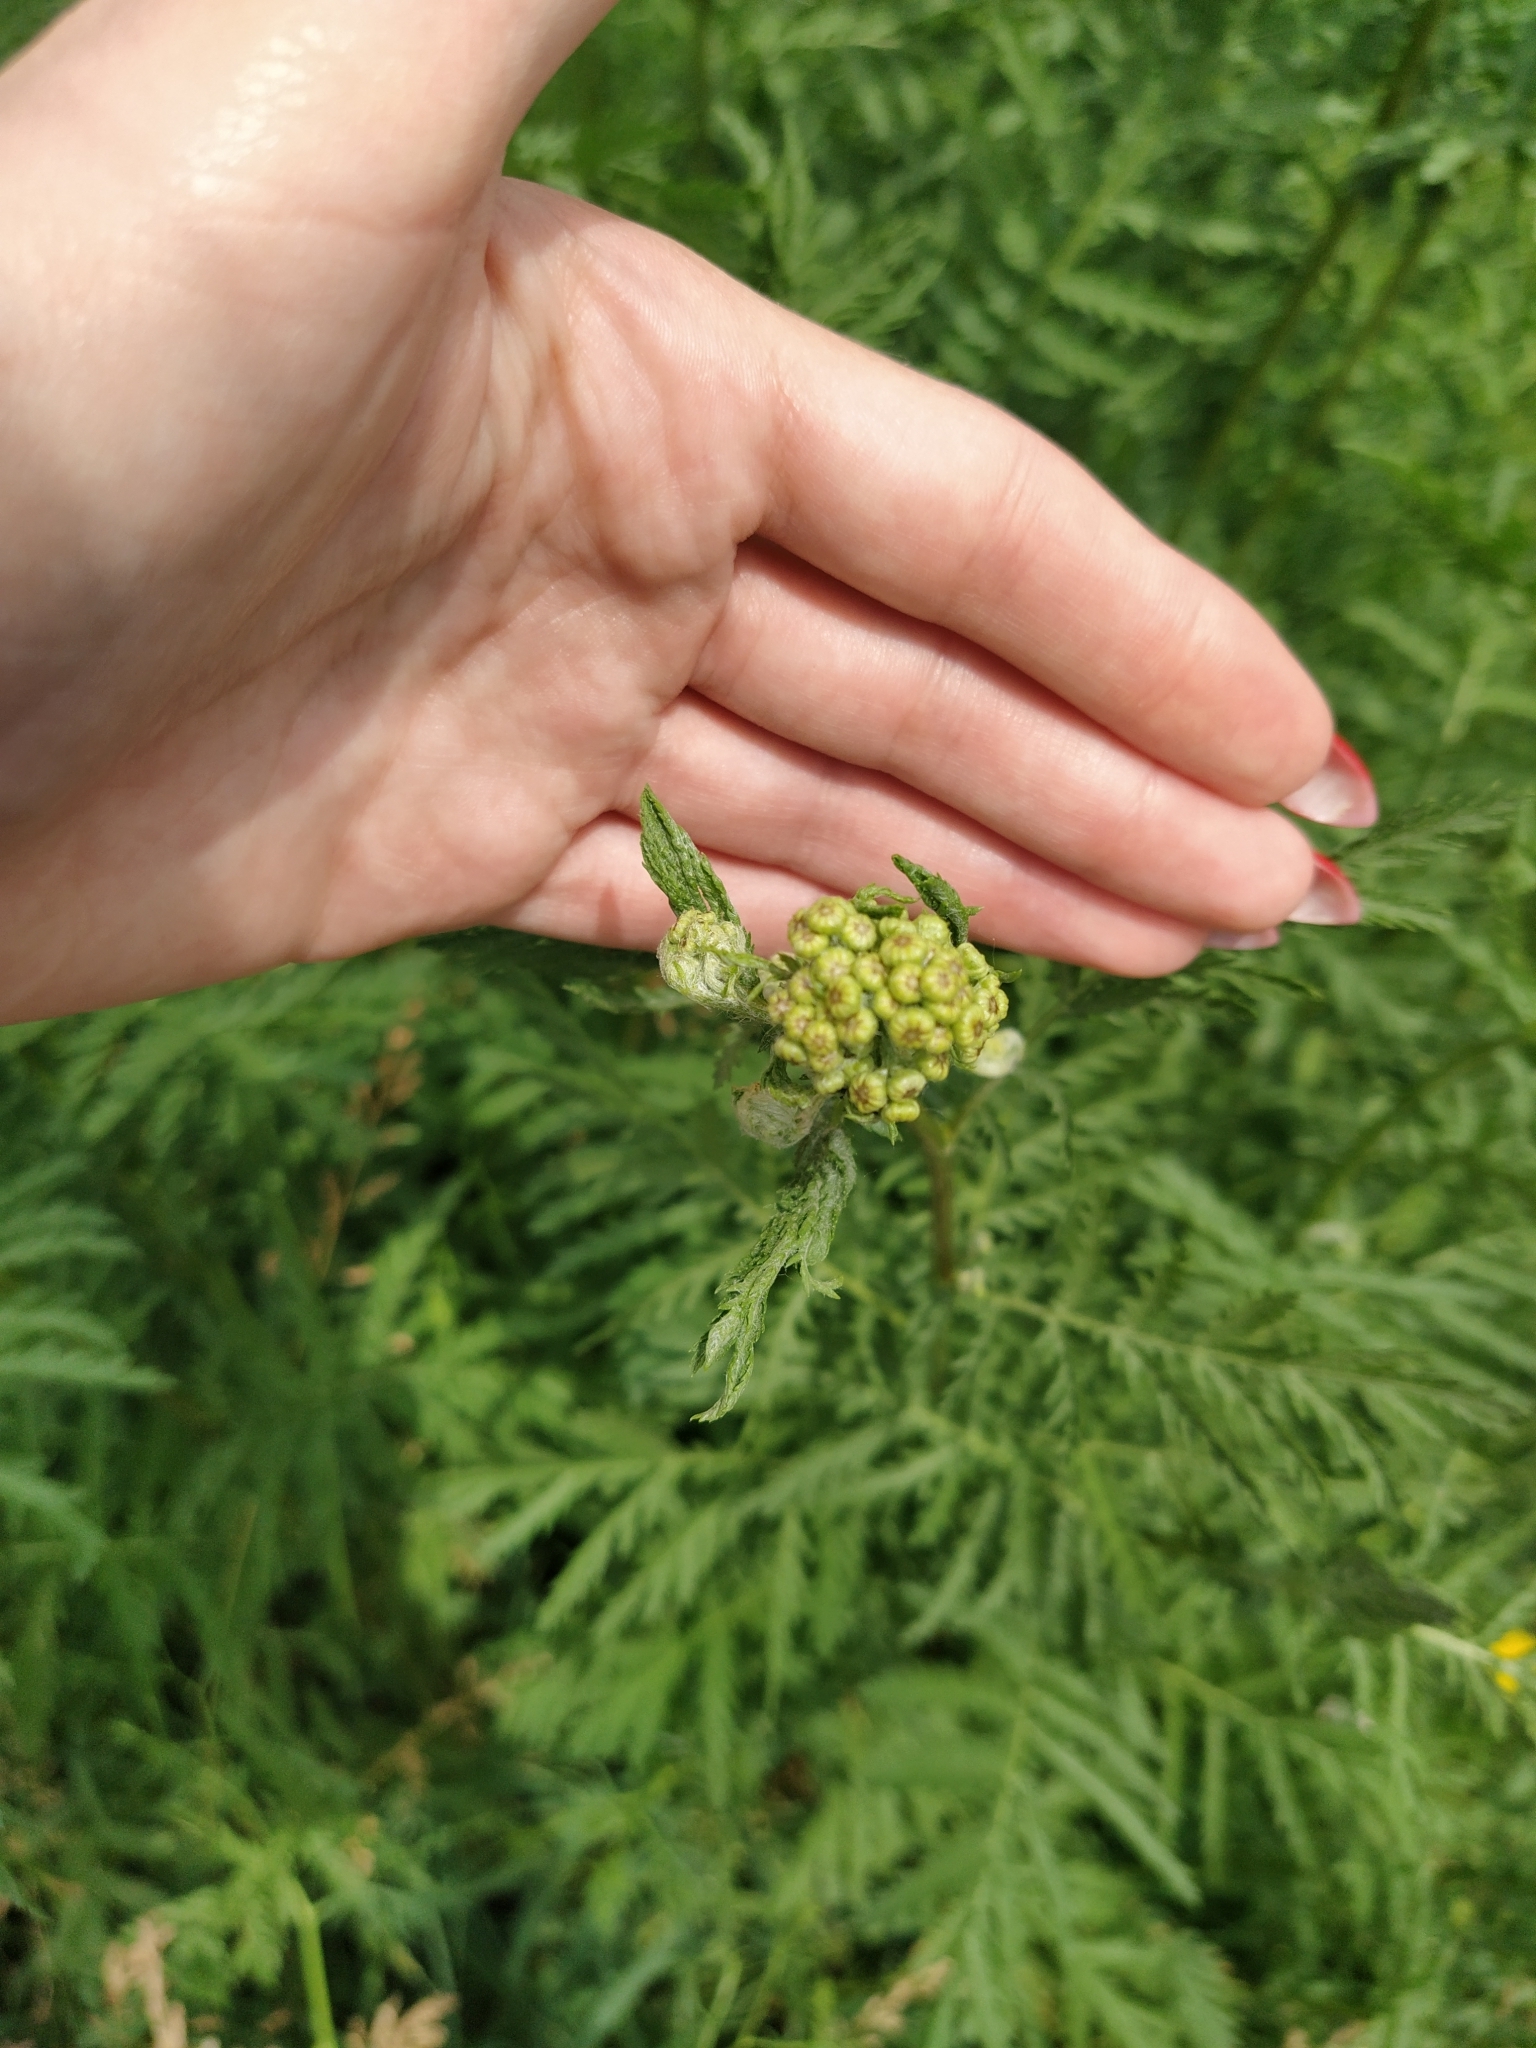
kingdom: Plantae
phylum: Tracheophyta
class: Magnoliopsida
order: Asterales
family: Asteraceae
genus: Tanacetum
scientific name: Tanacetum vulgare
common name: Common tansy
